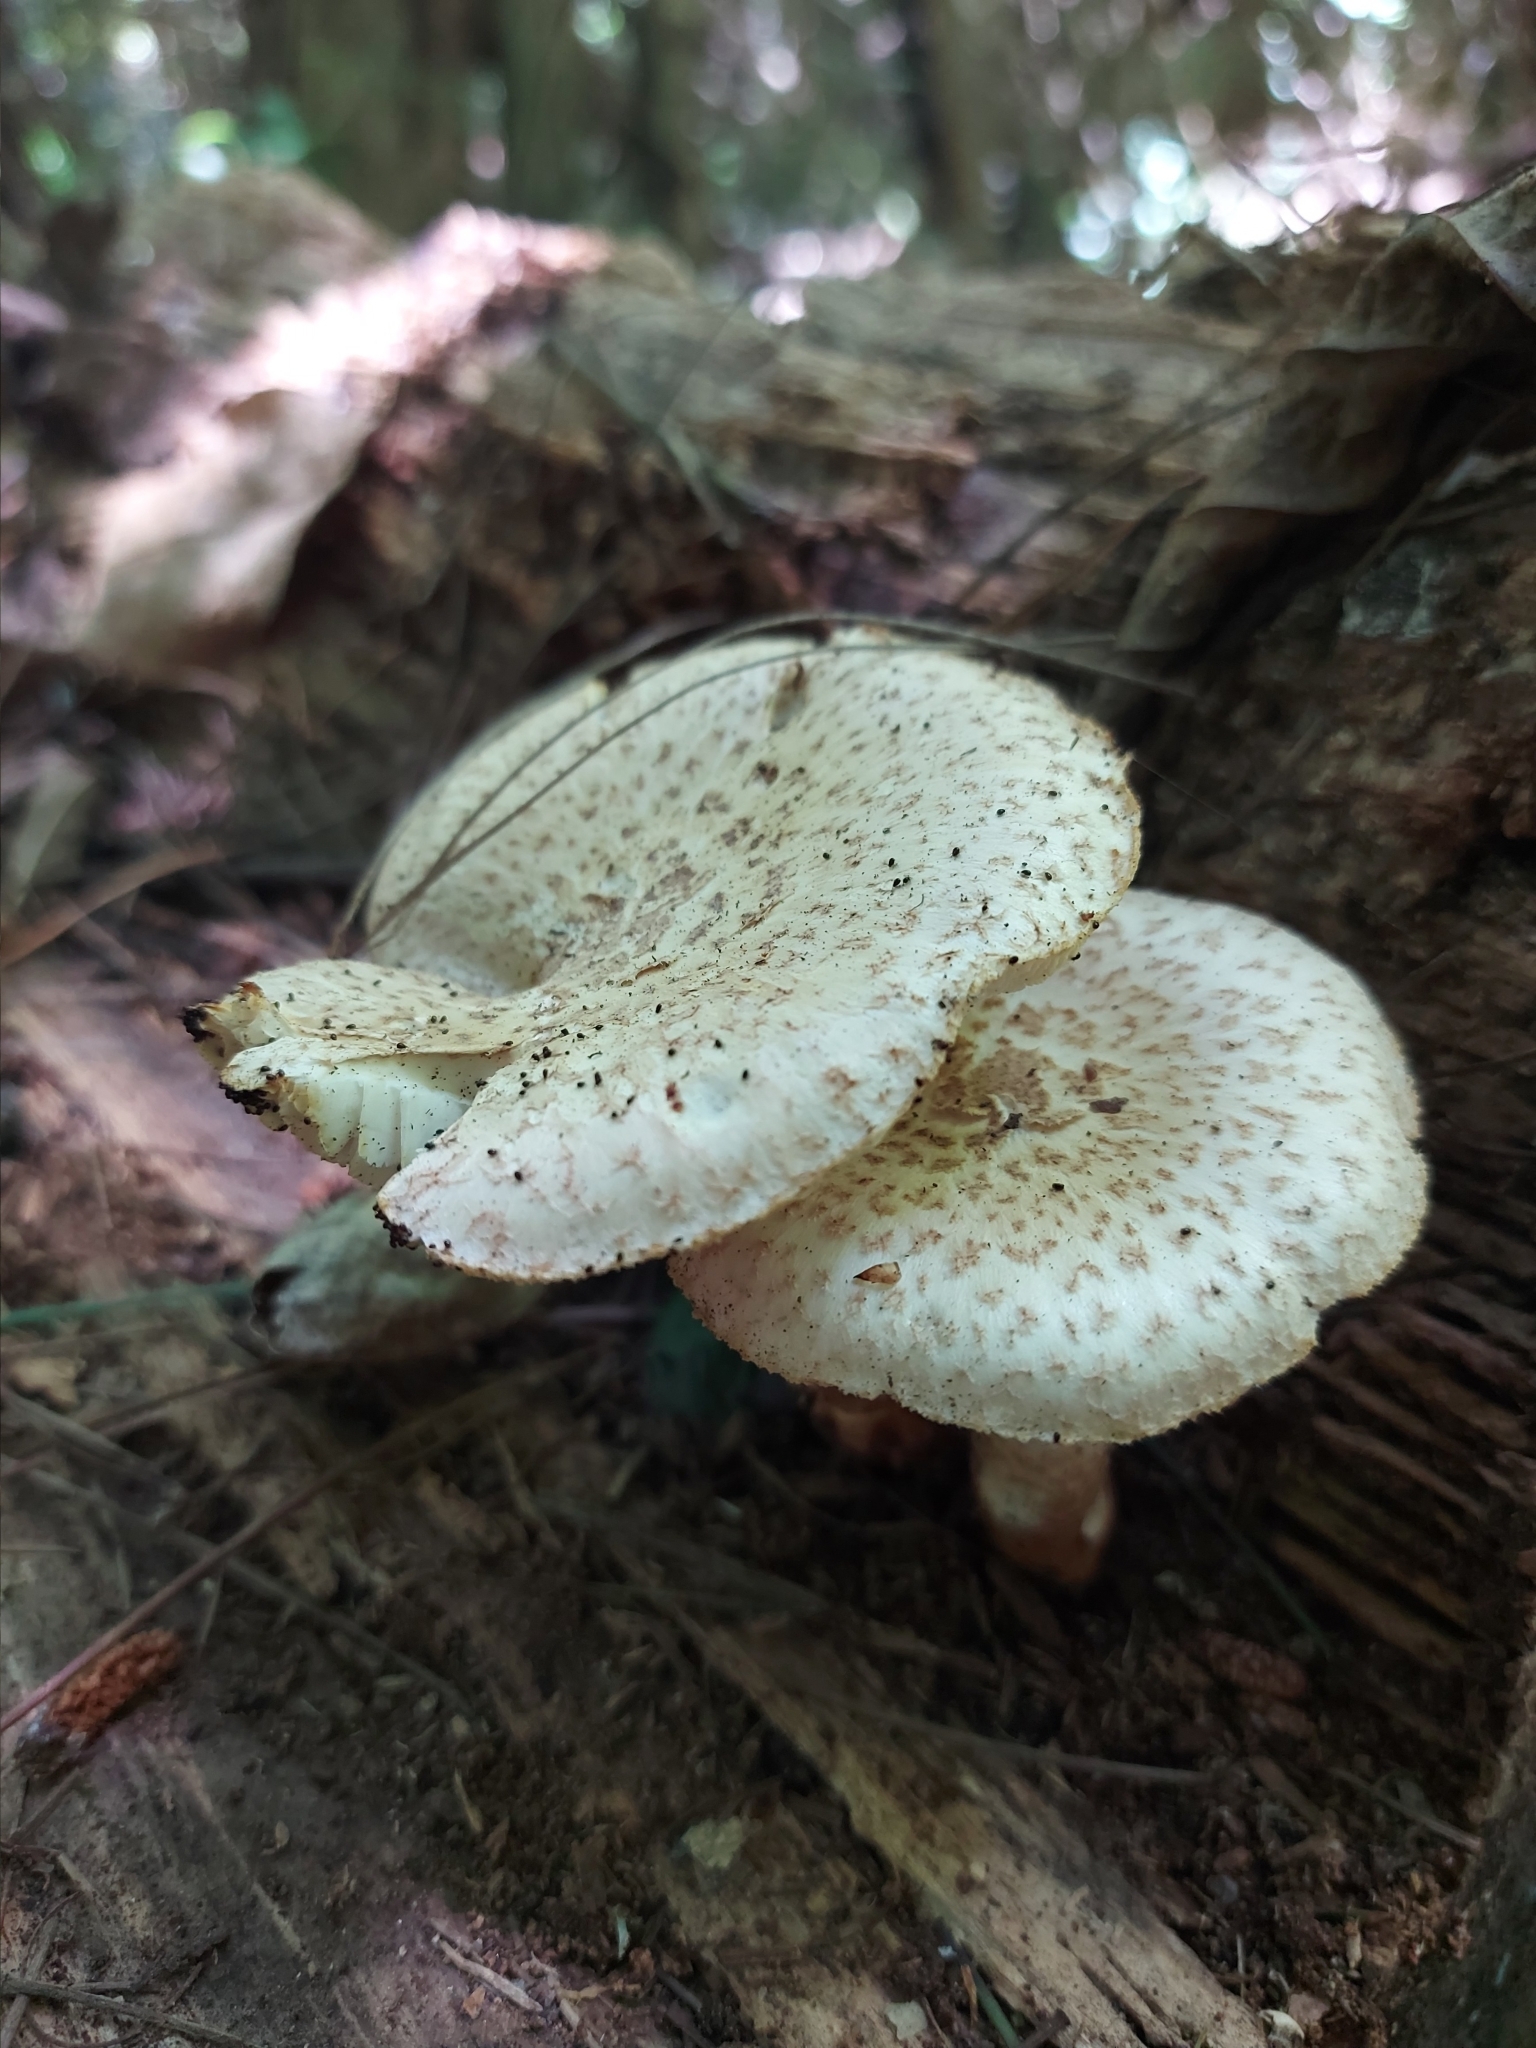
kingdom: Fungi
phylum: Basidiomycota
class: Agaricomycetes
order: Gloeophyllales
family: Gloeophyllaceae
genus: Neolentinus
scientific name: Neolentinus lepideus
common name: Scaly sawgill
